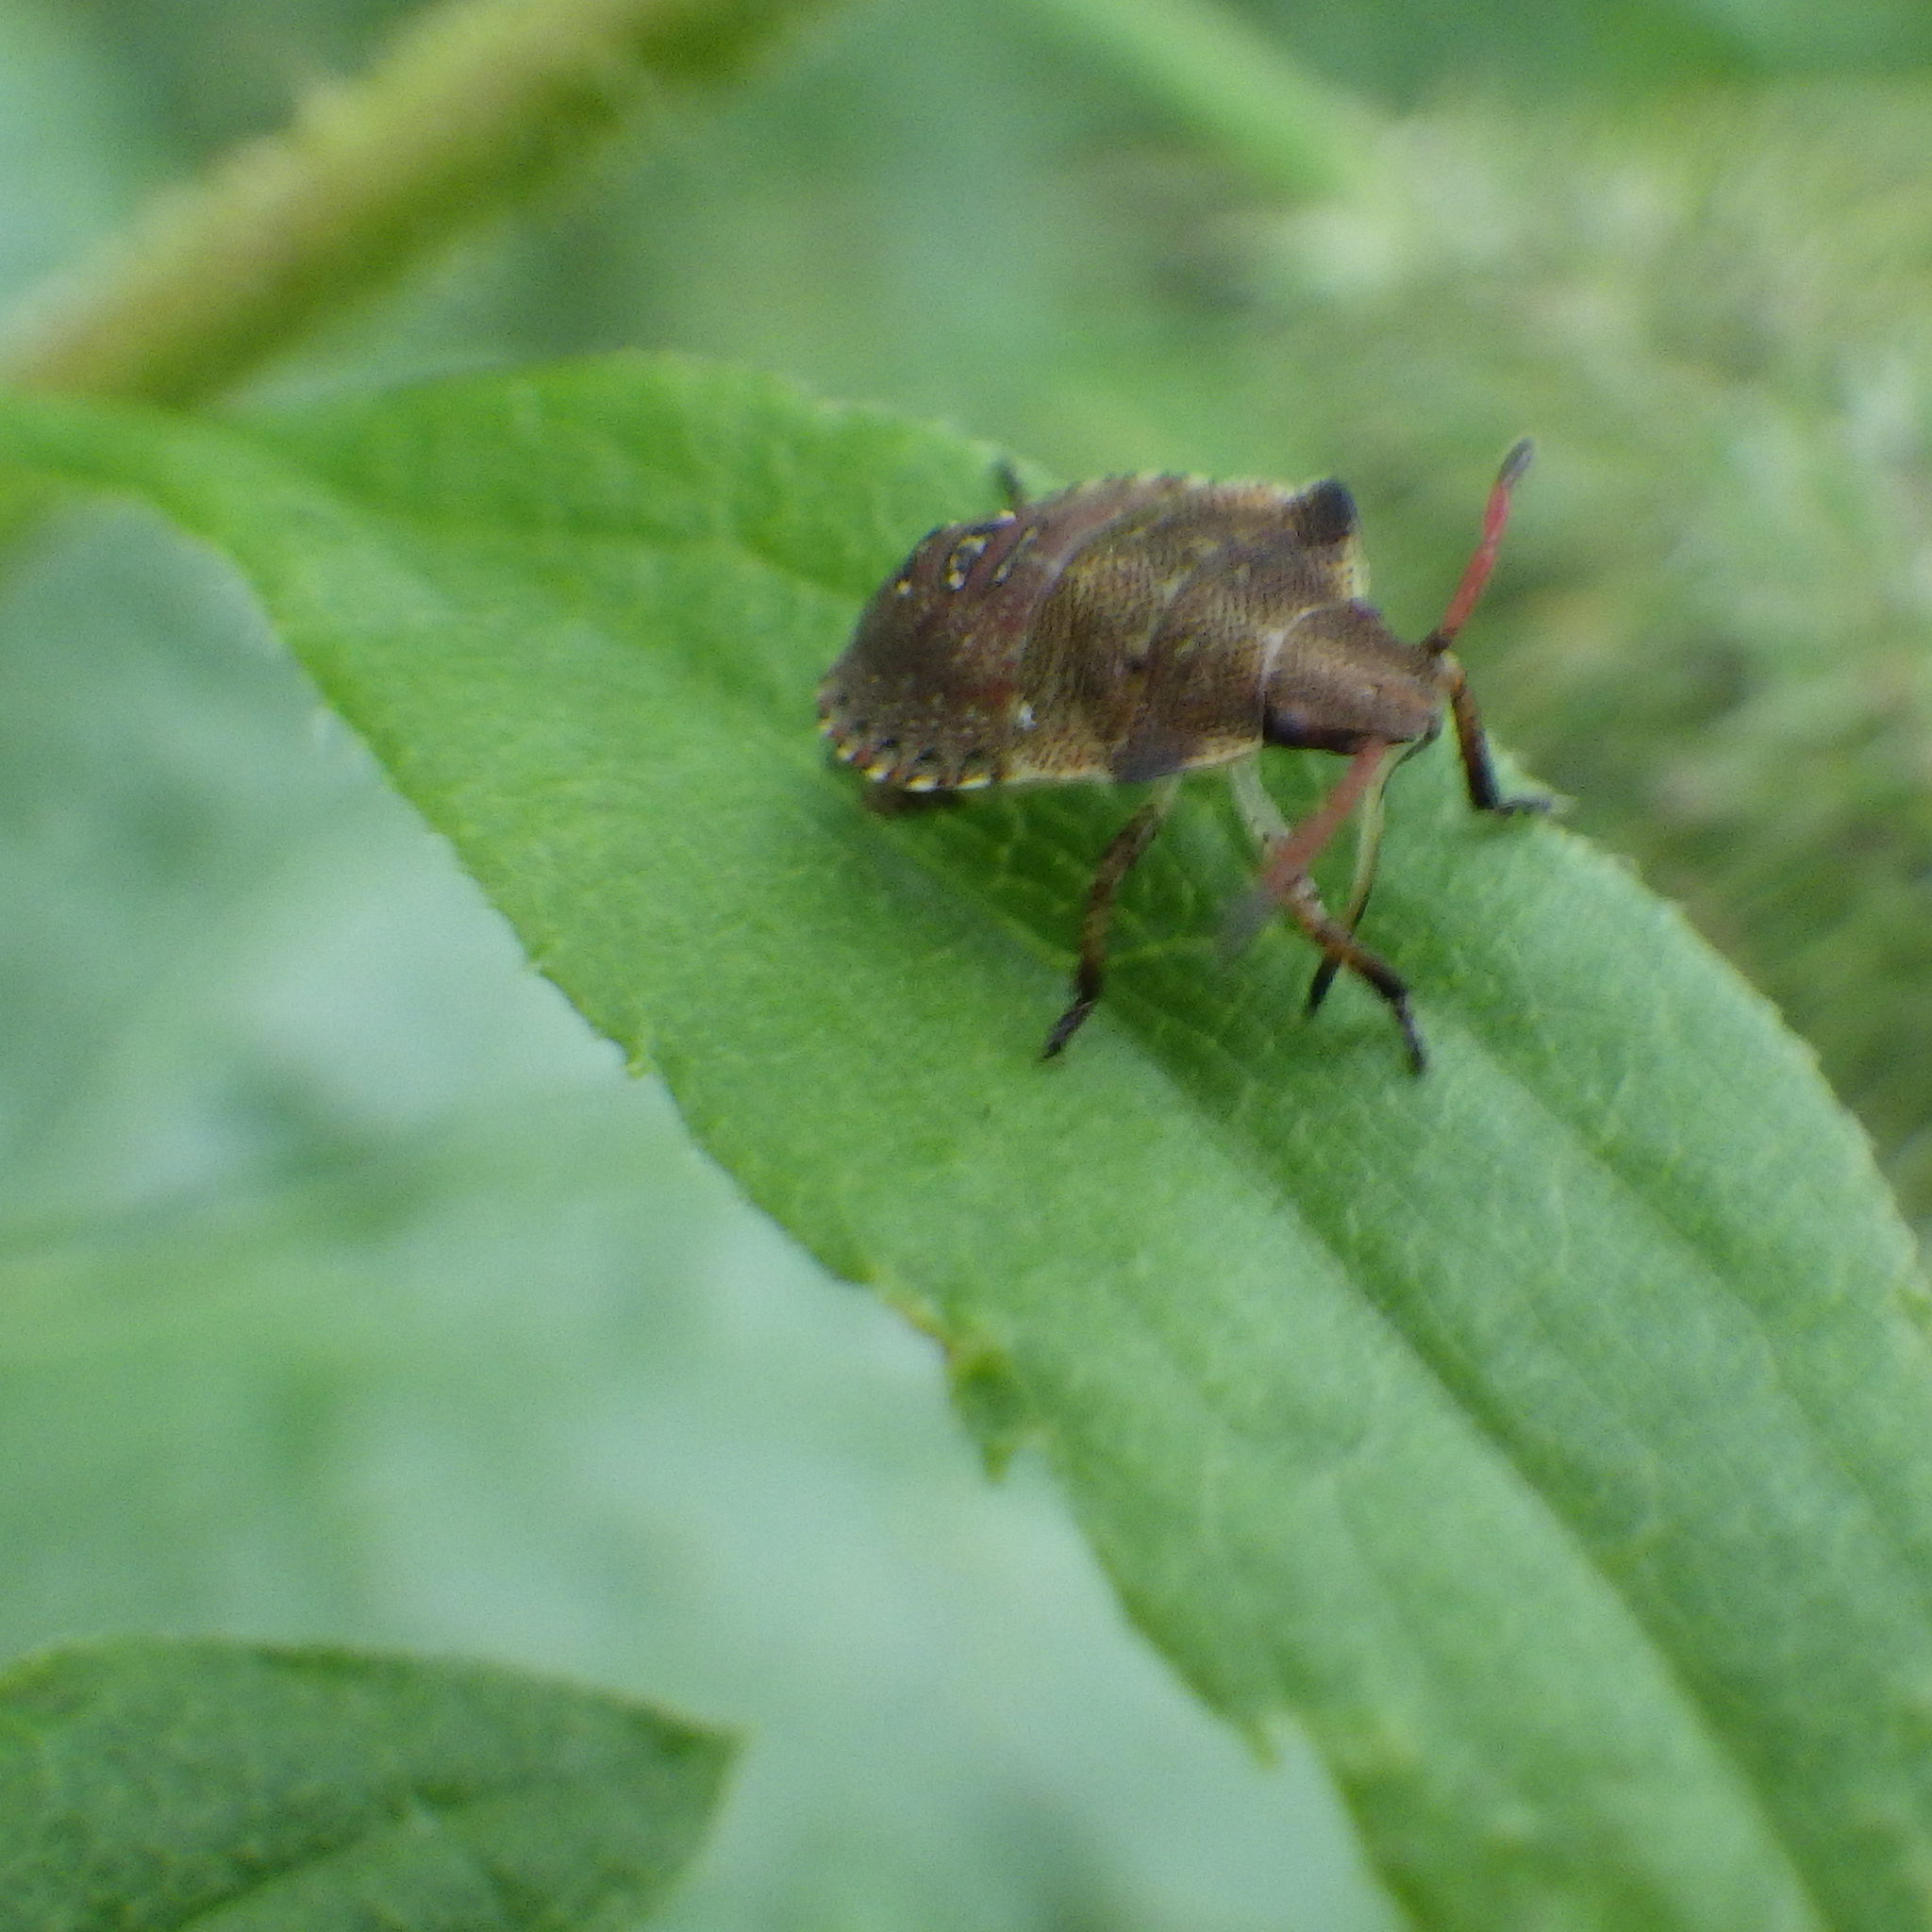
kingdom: Animalia
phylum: Arthropoda
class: Insecta
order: Hemiptera
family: Pentatomidae
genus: Euschistus
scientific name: Euschistus tristigmus
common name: Dusky stink bug
